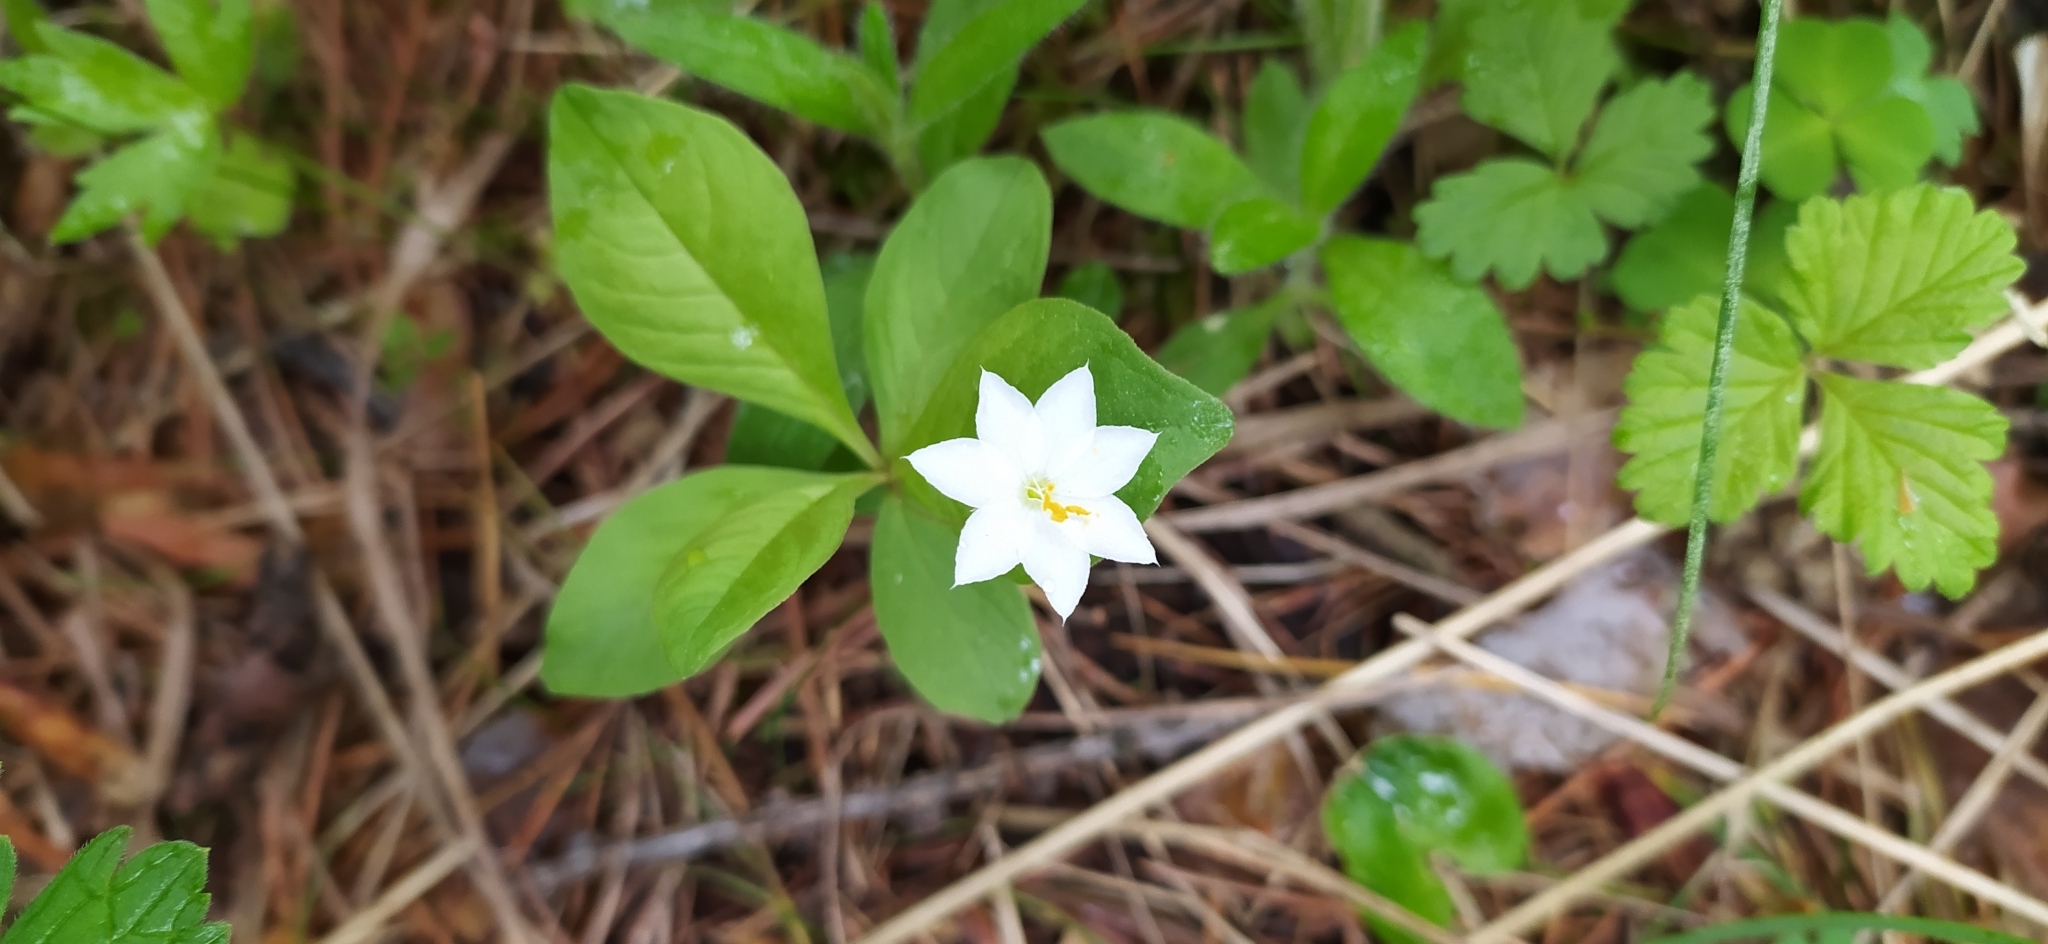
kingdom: Plantae
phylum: Tracheophyta
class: Magnoliopsida
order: Ericales
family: Primulaceae
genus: Lysimachia
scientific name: Lysimachia europaea
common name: Arctic starflower
